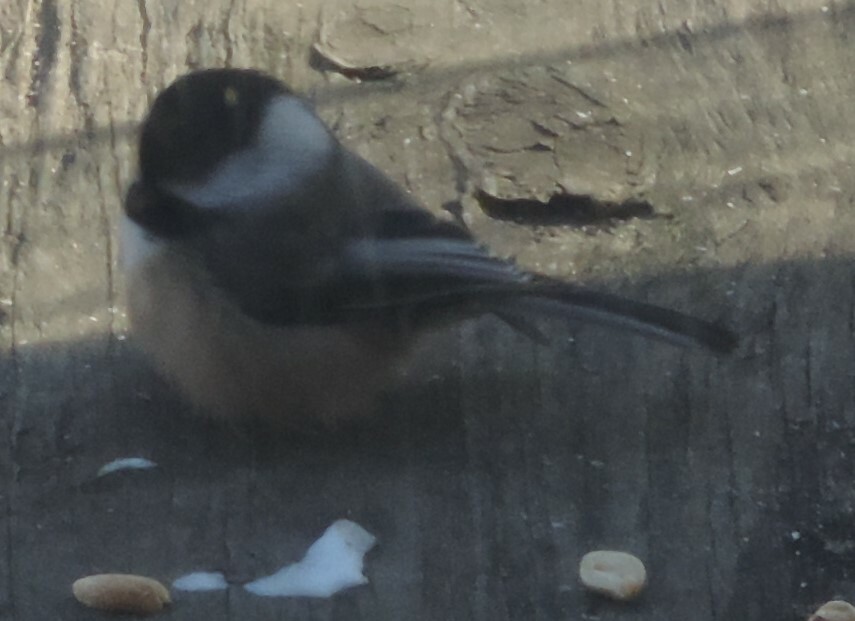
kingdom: Animalia
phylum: Chordata
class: Aves
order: Passeriformes
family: Paridae
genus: Poecile
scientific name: Poecile atricapillus
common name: Black-capped chickadee
